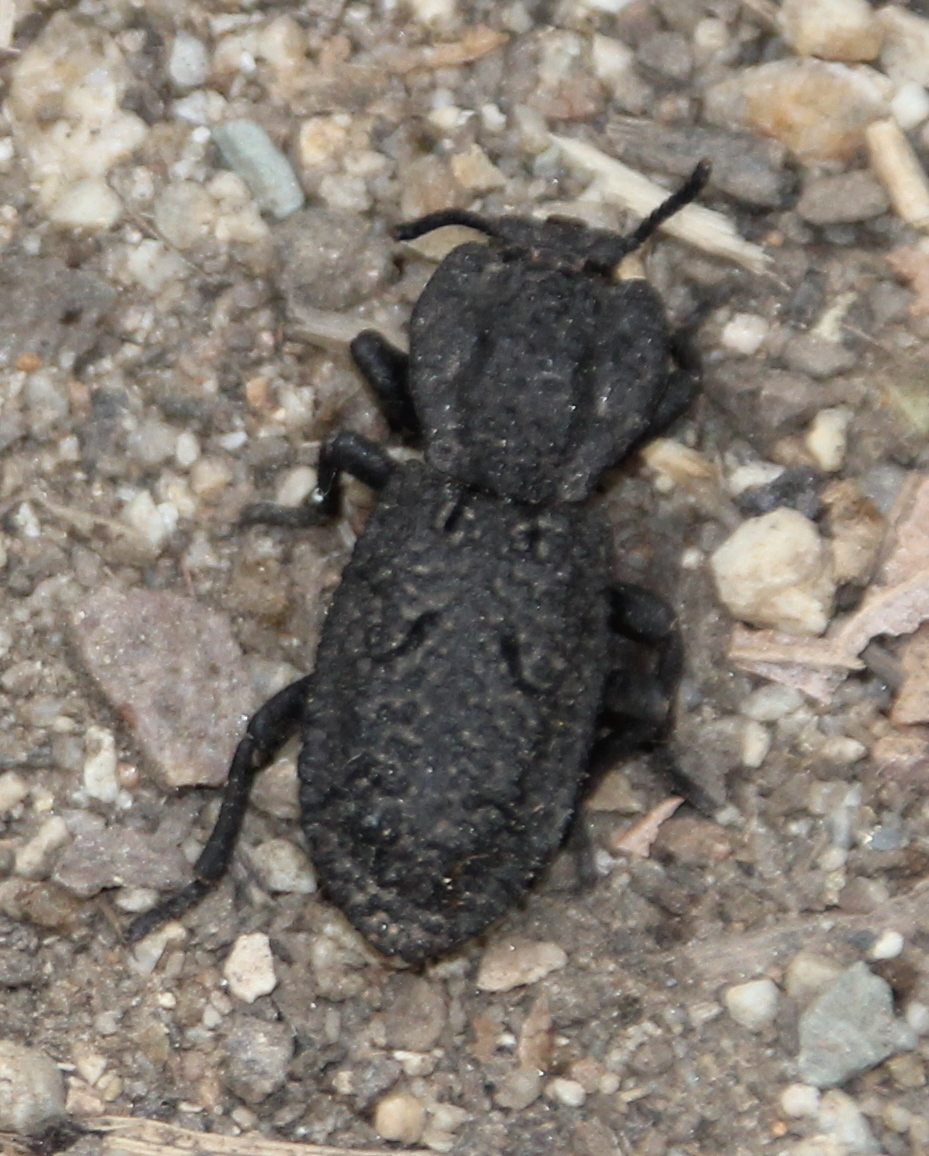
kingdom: Animalia
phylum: Arthropoda
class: Insecta
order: Coleoptera
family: Zopheridae
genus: Phloeodes
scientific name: Phloeodes diabolicus
